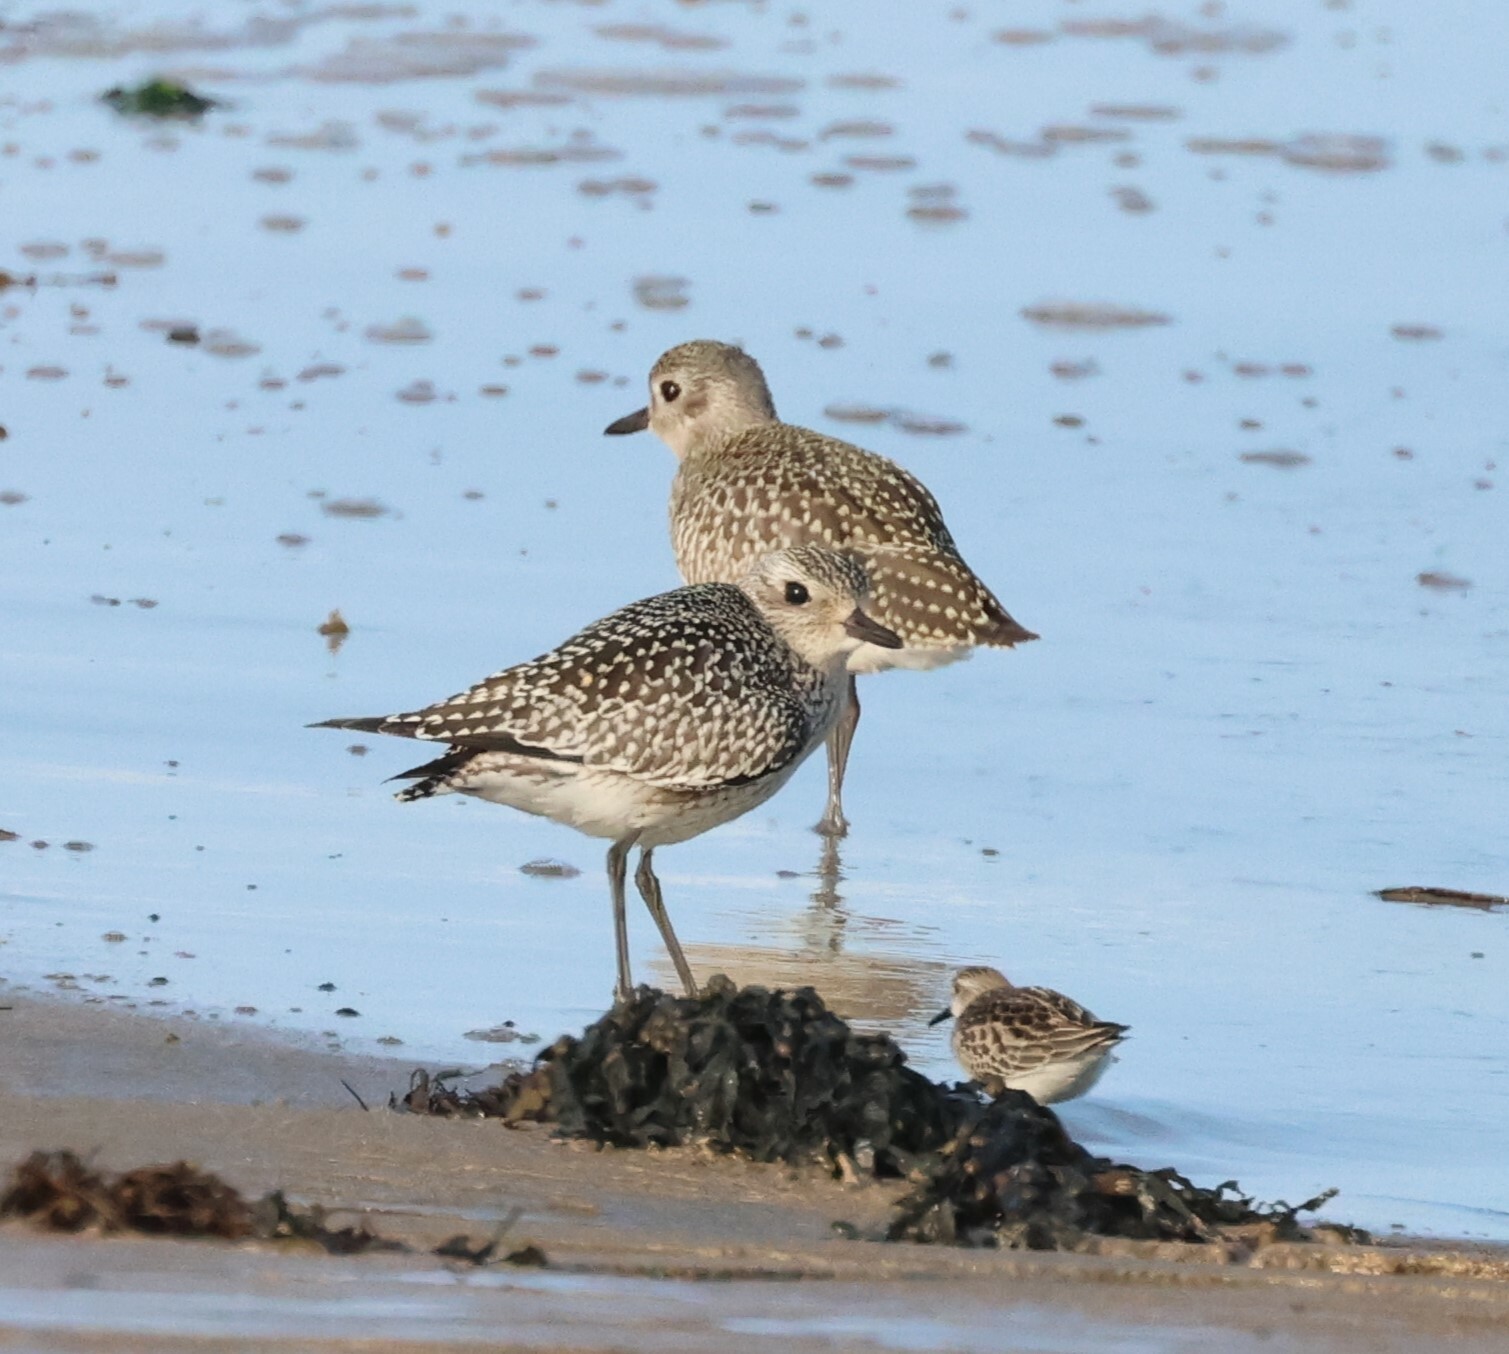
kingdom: Animalia
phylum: Chordata
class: Aves
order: Charadriiformes
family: Charadriidae
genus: Pluvialis
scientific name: Pluvialis squatarola
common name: Grey plover
